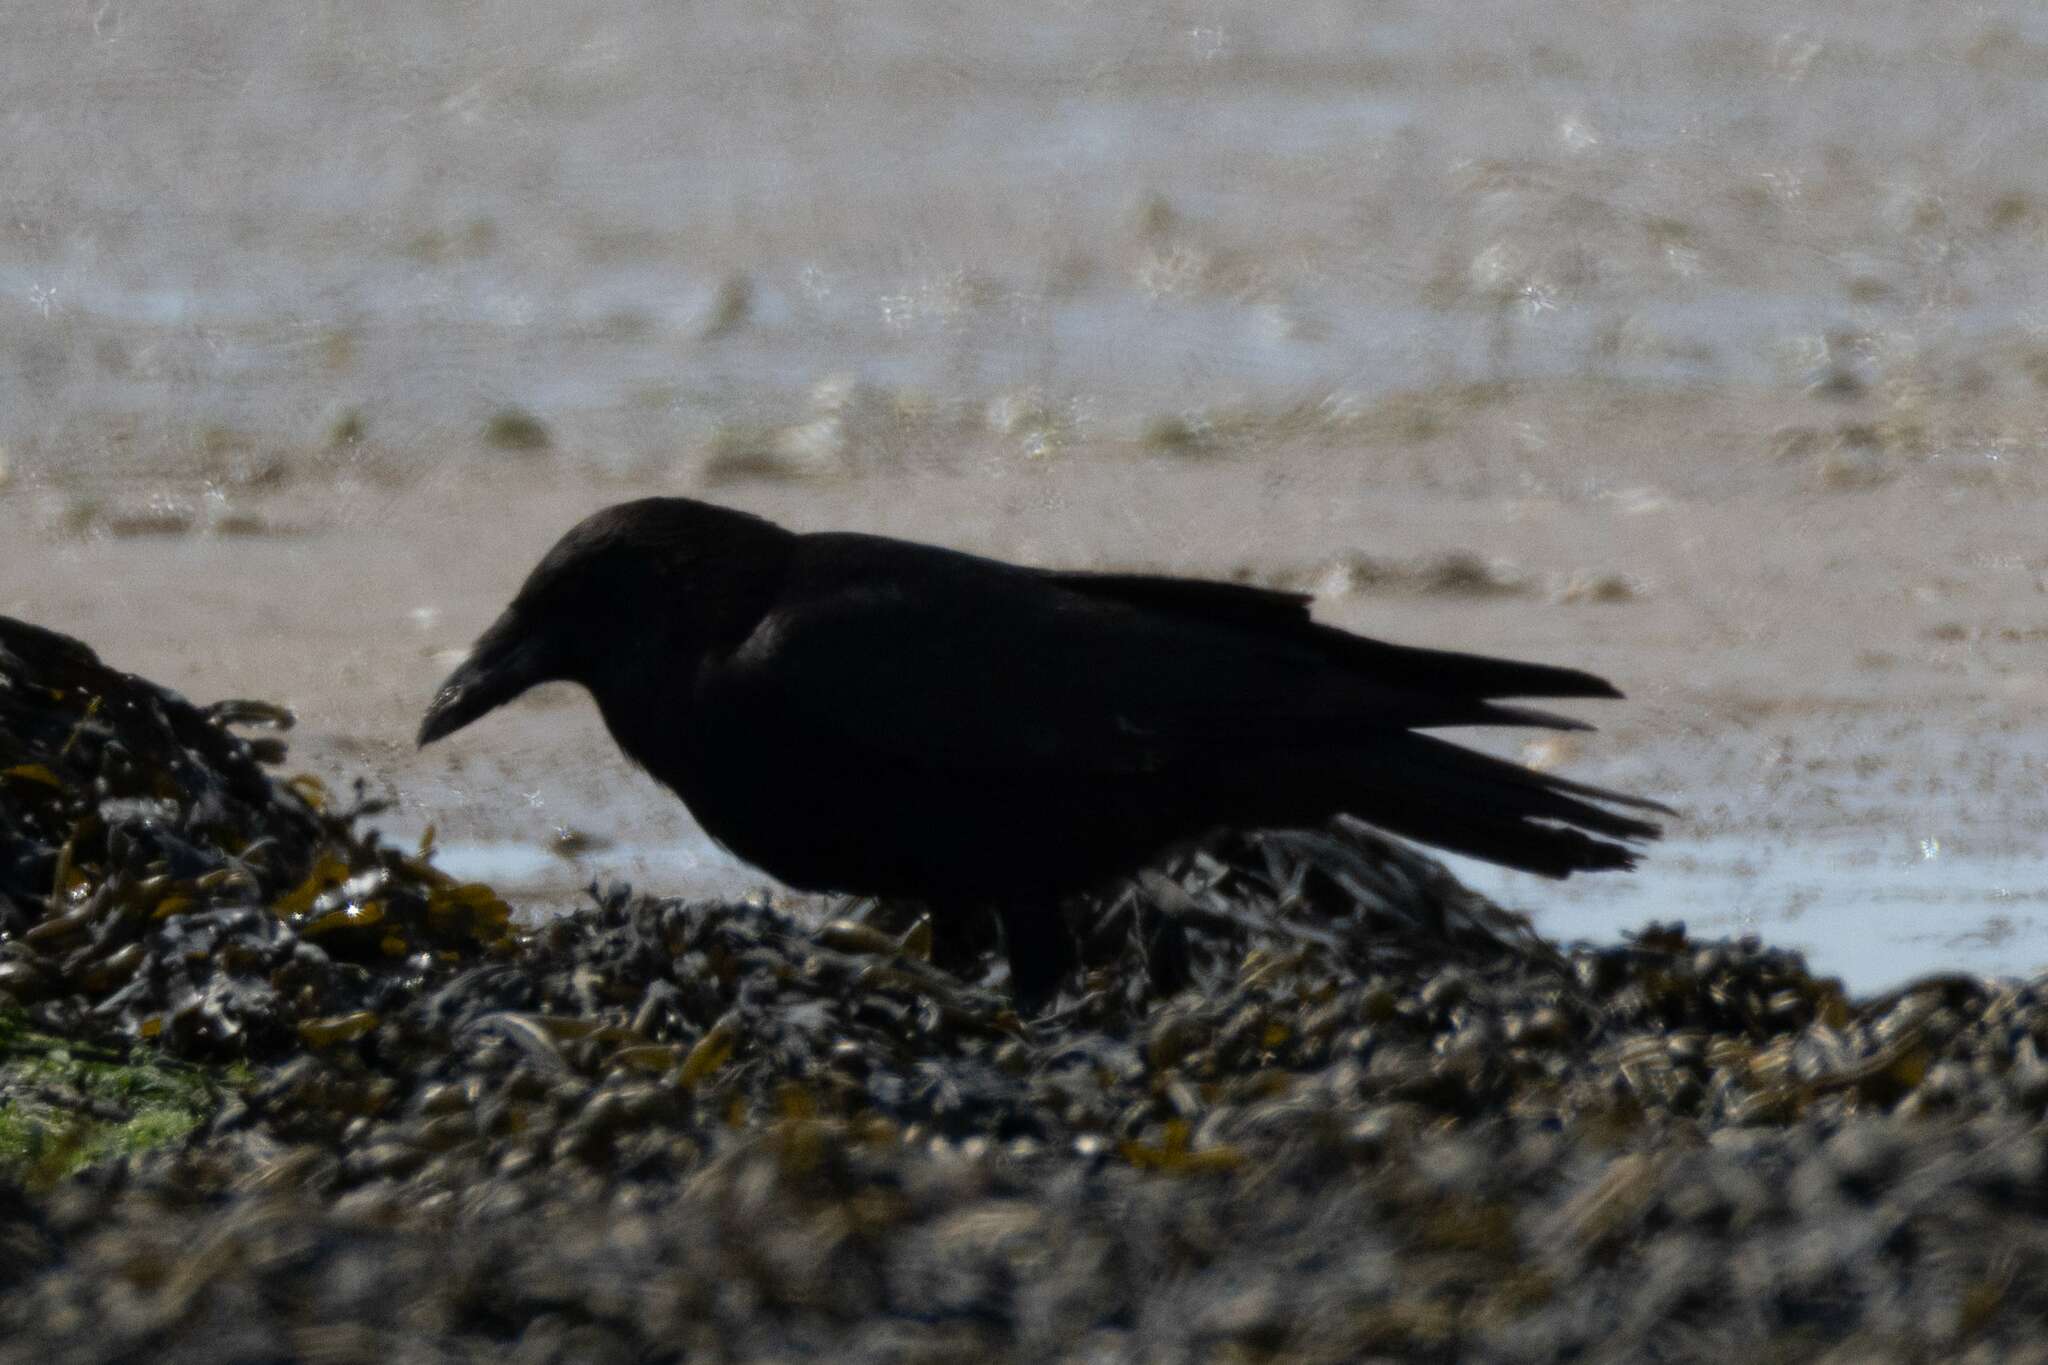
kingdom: Animalia
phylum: Chordata
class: Aves
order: Passeriformes
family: Corvidae
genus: Corvus
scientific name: Corvus corone
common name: Carrion crow
